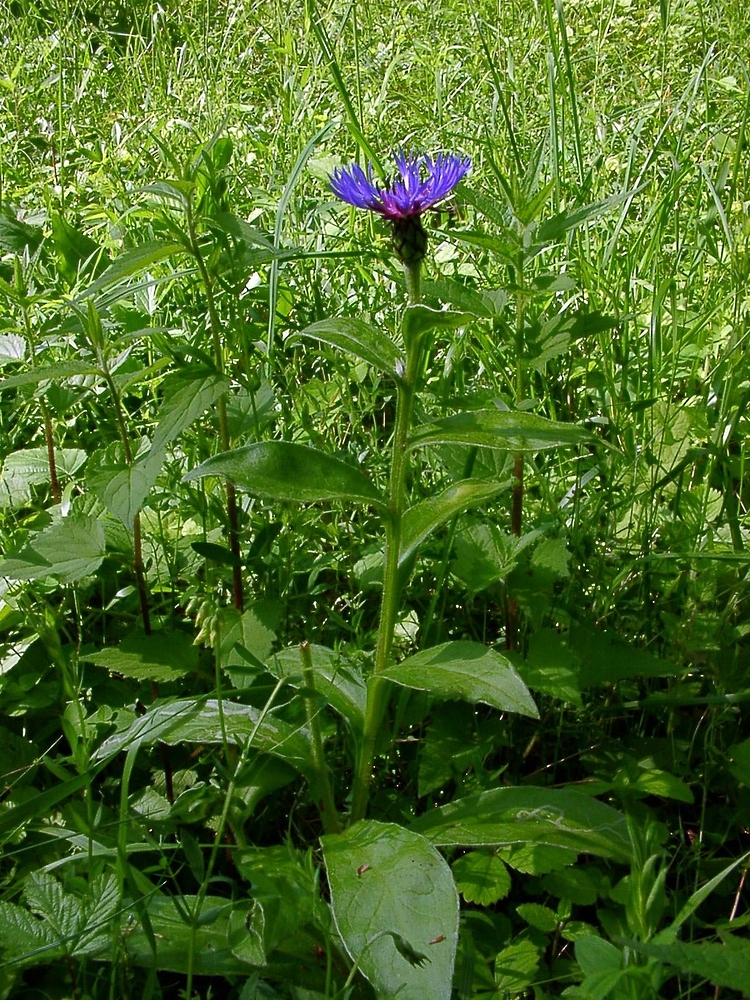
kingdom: Plantae
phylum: Tracheophyta
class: Magnoliopsida
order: Asterales
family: Asteraceae
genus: Centaurea
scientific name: Centaurea montana
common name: Perennial cornflower
